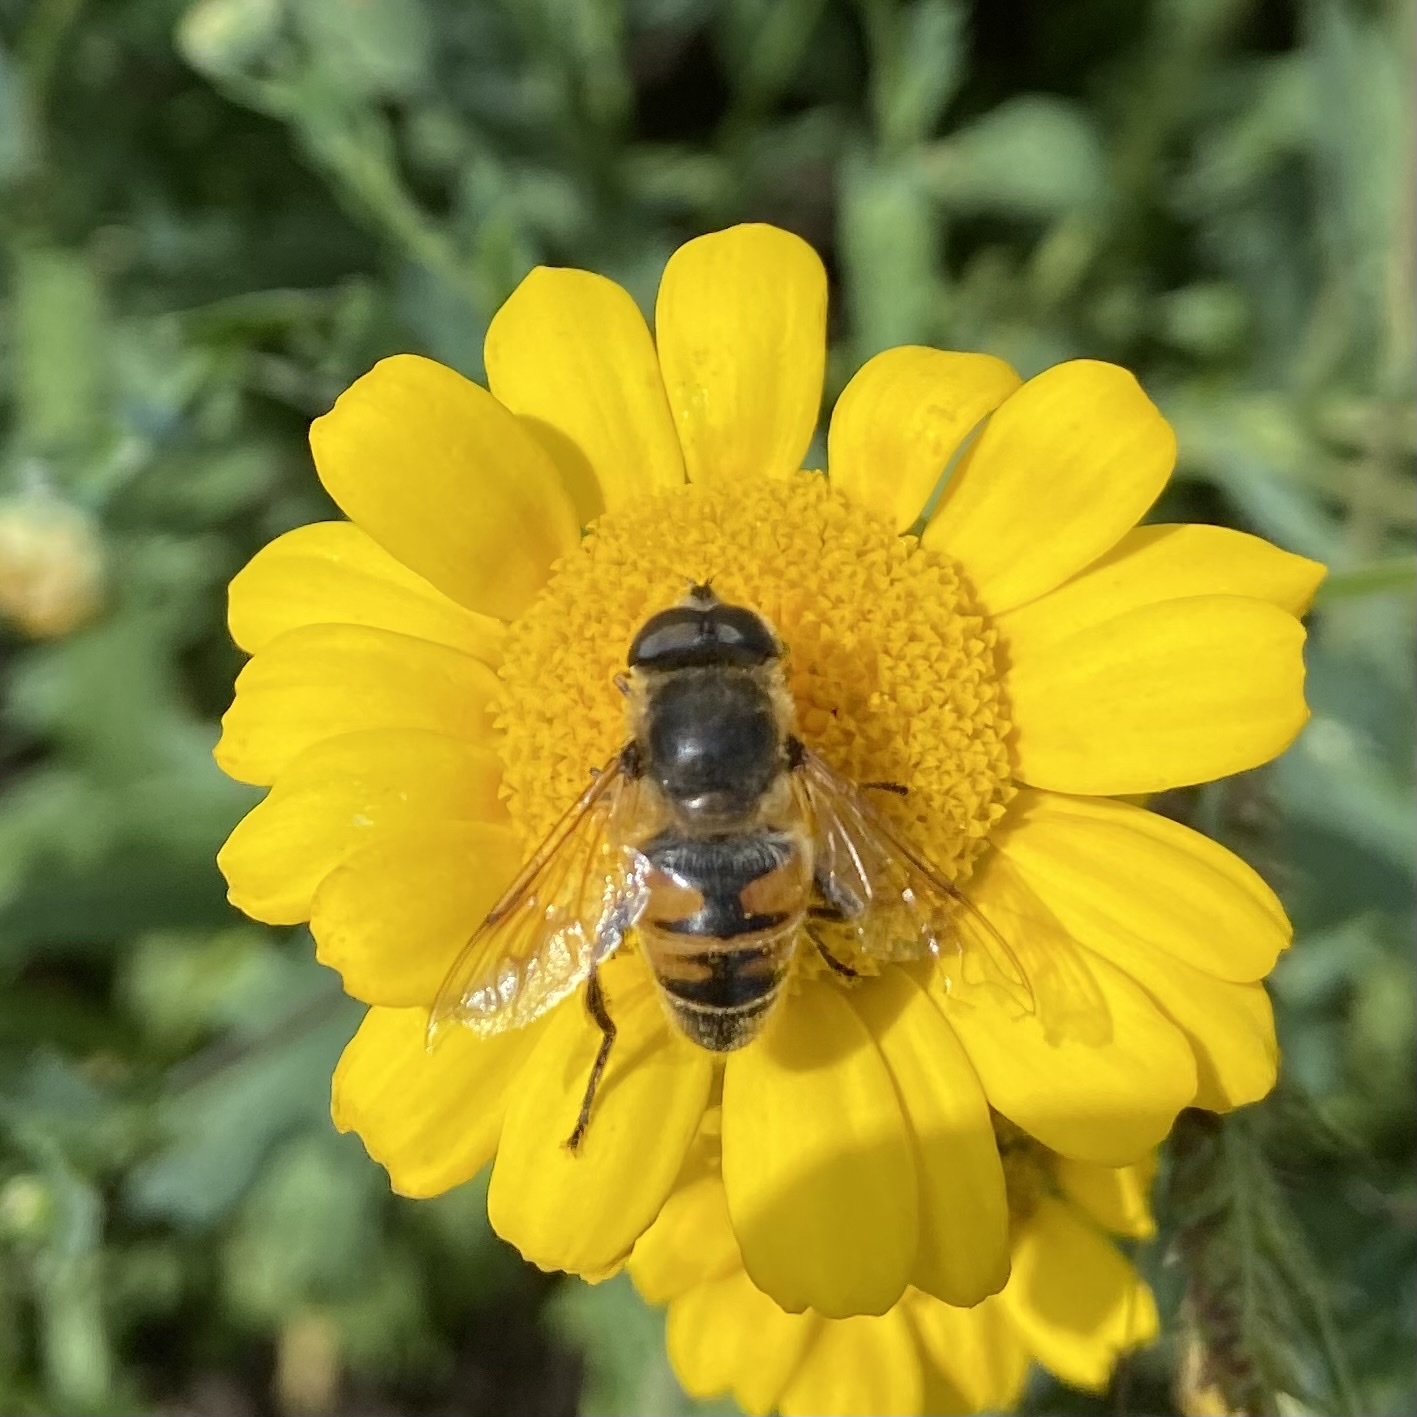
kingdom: Animalia
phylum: Arthropoda
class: Insecta
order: Diptera
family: Syrphidae
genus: Eristalis
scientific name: Eristalis tenax
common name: Drone fly
